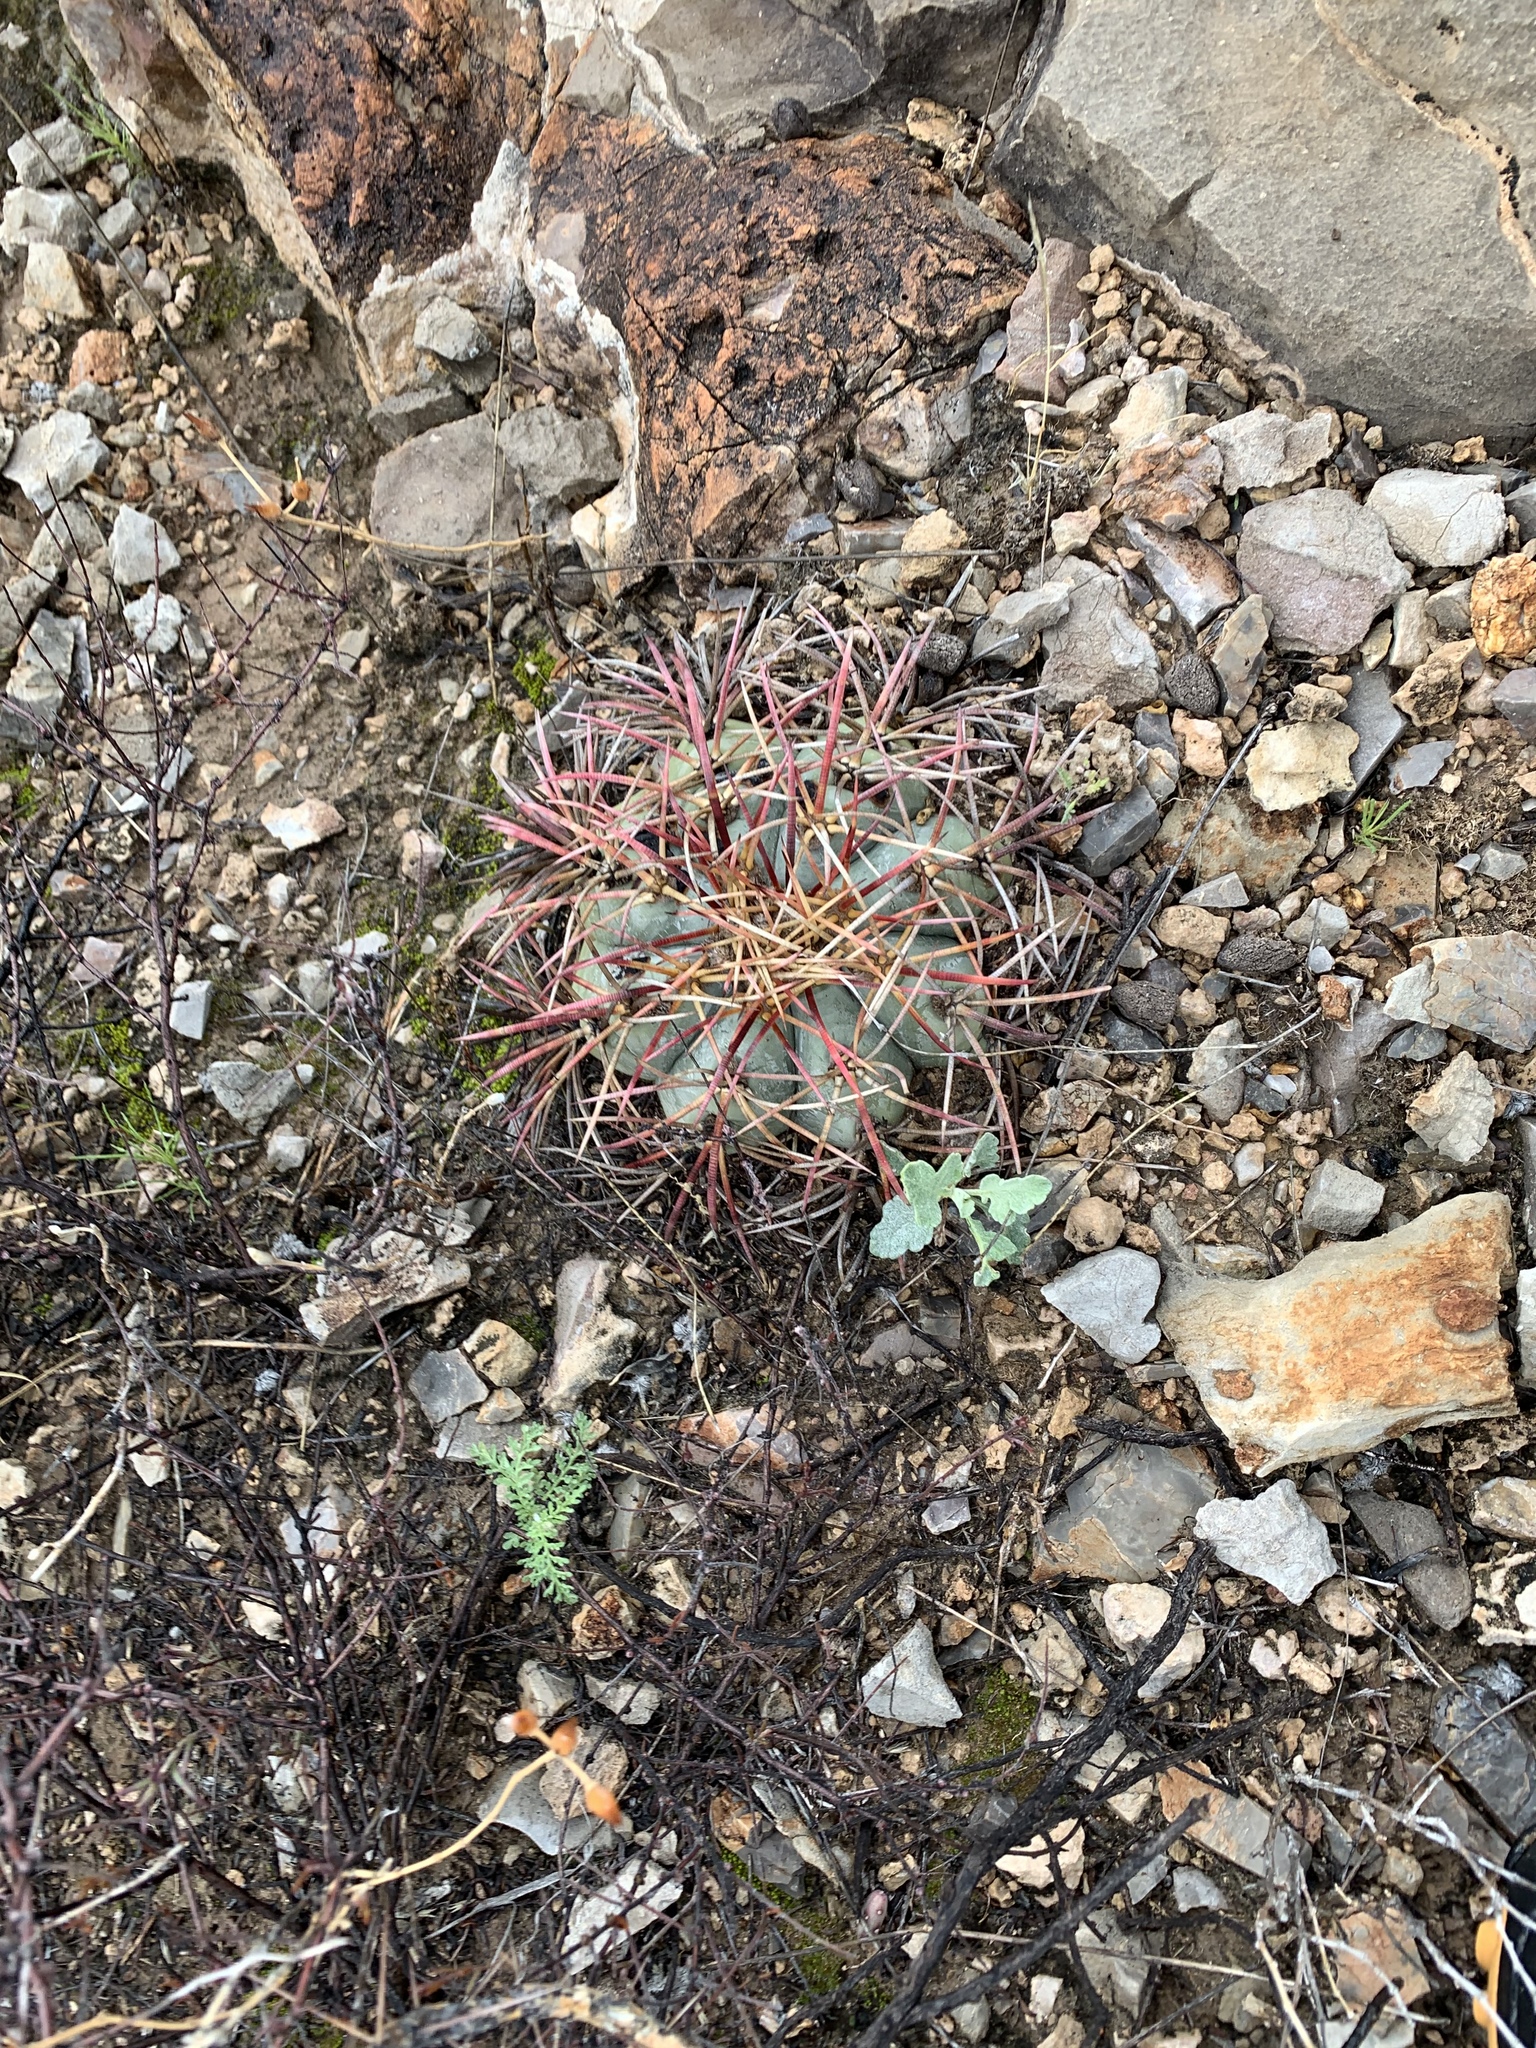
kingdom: Plantae
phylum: Tracheophyta
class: Magnoliopsida
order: Caryophyllales
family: Cactaceae
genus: Echinocactus
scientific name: Echinocactus horizonthalonius
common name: Devilshead
